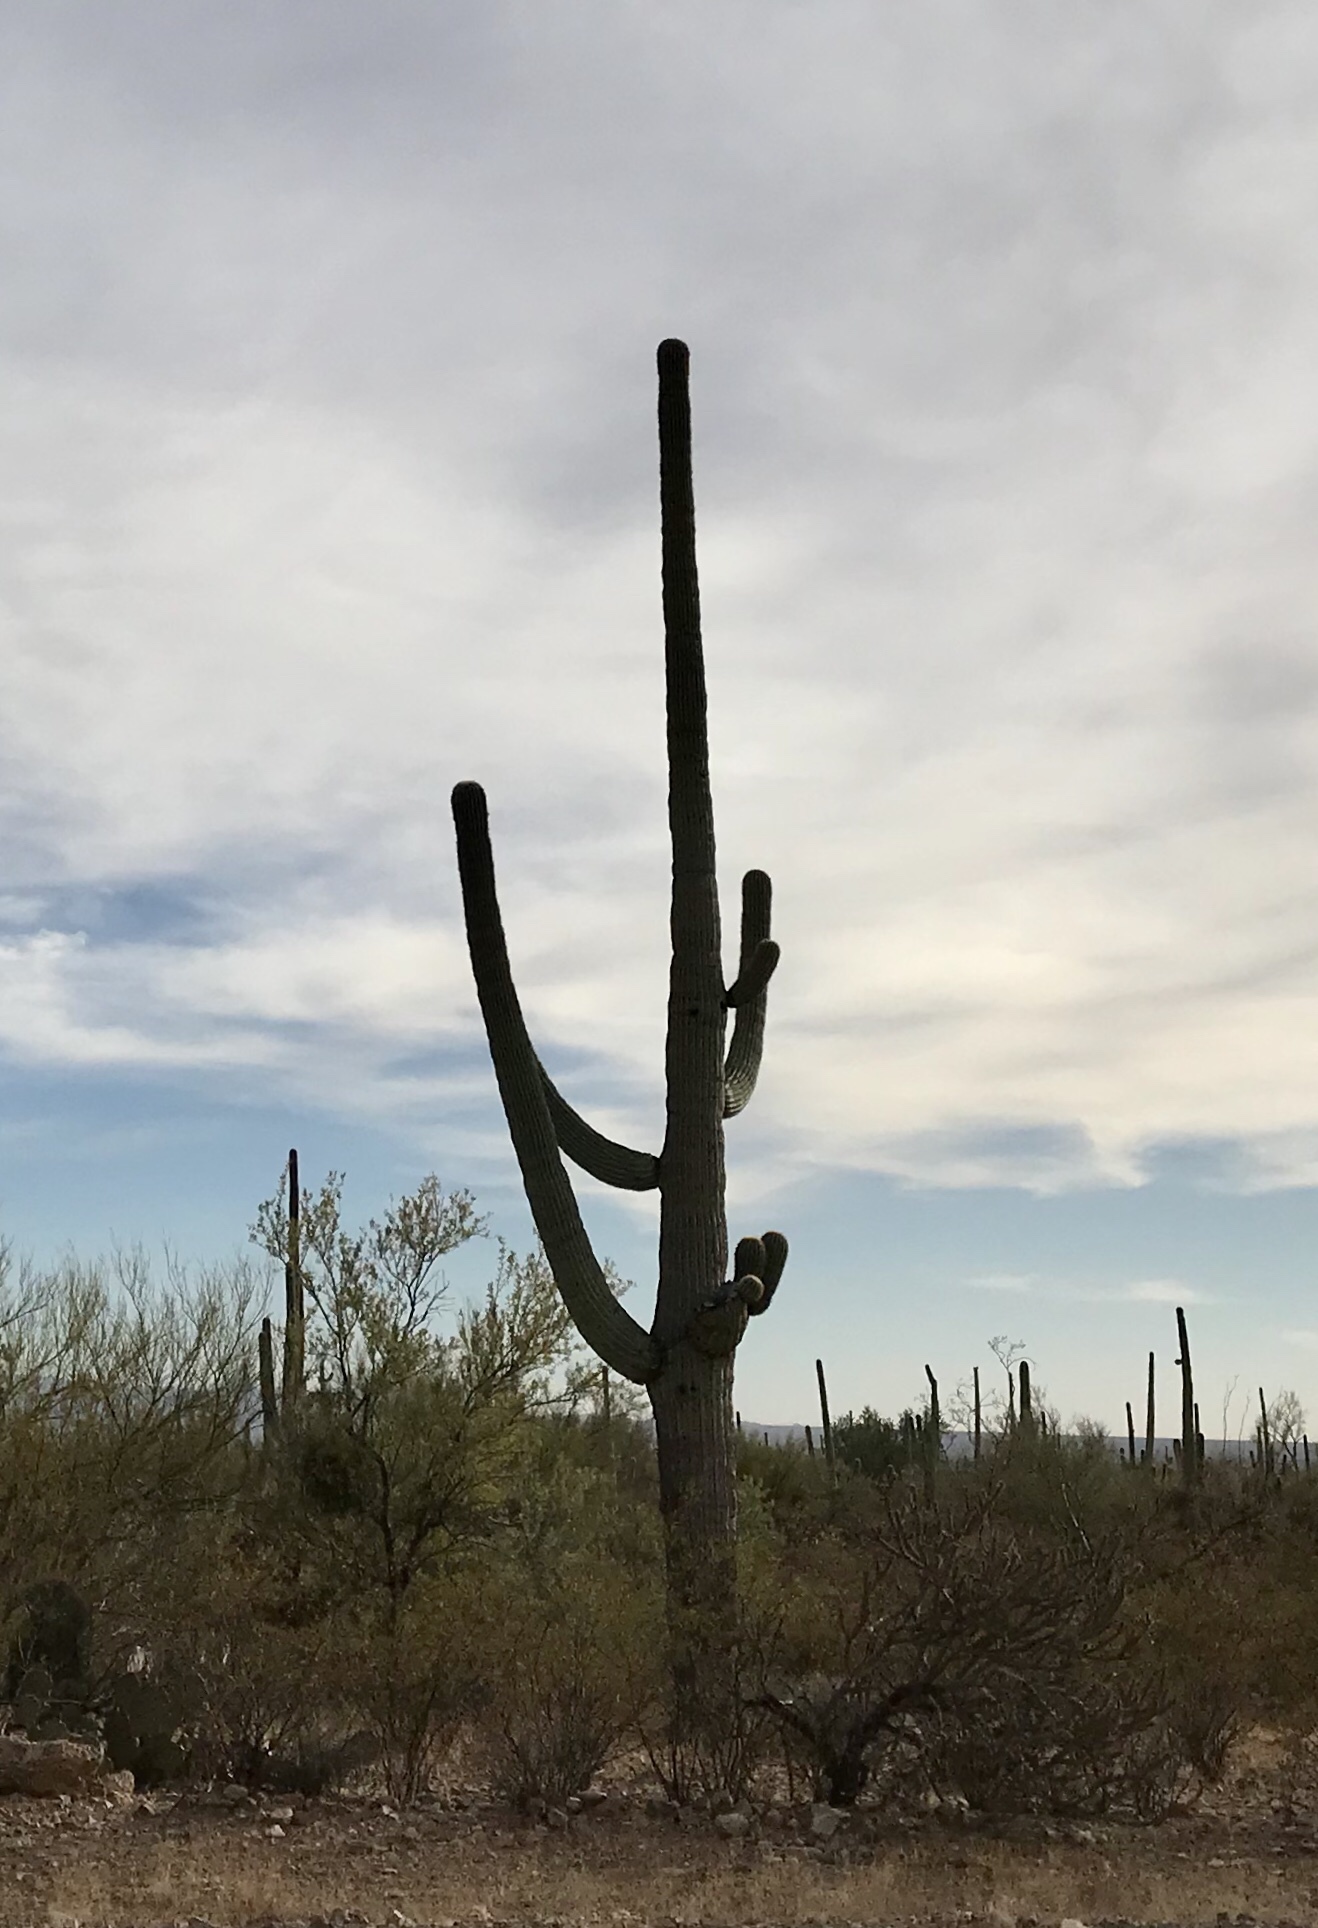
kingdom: Plantae
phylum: Tracheophyta
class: Magnoliopsida
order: Caryophyllales
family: Cactaceae
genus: Carnegiea
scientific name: Carnegiea gigantea
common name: Saguaro
